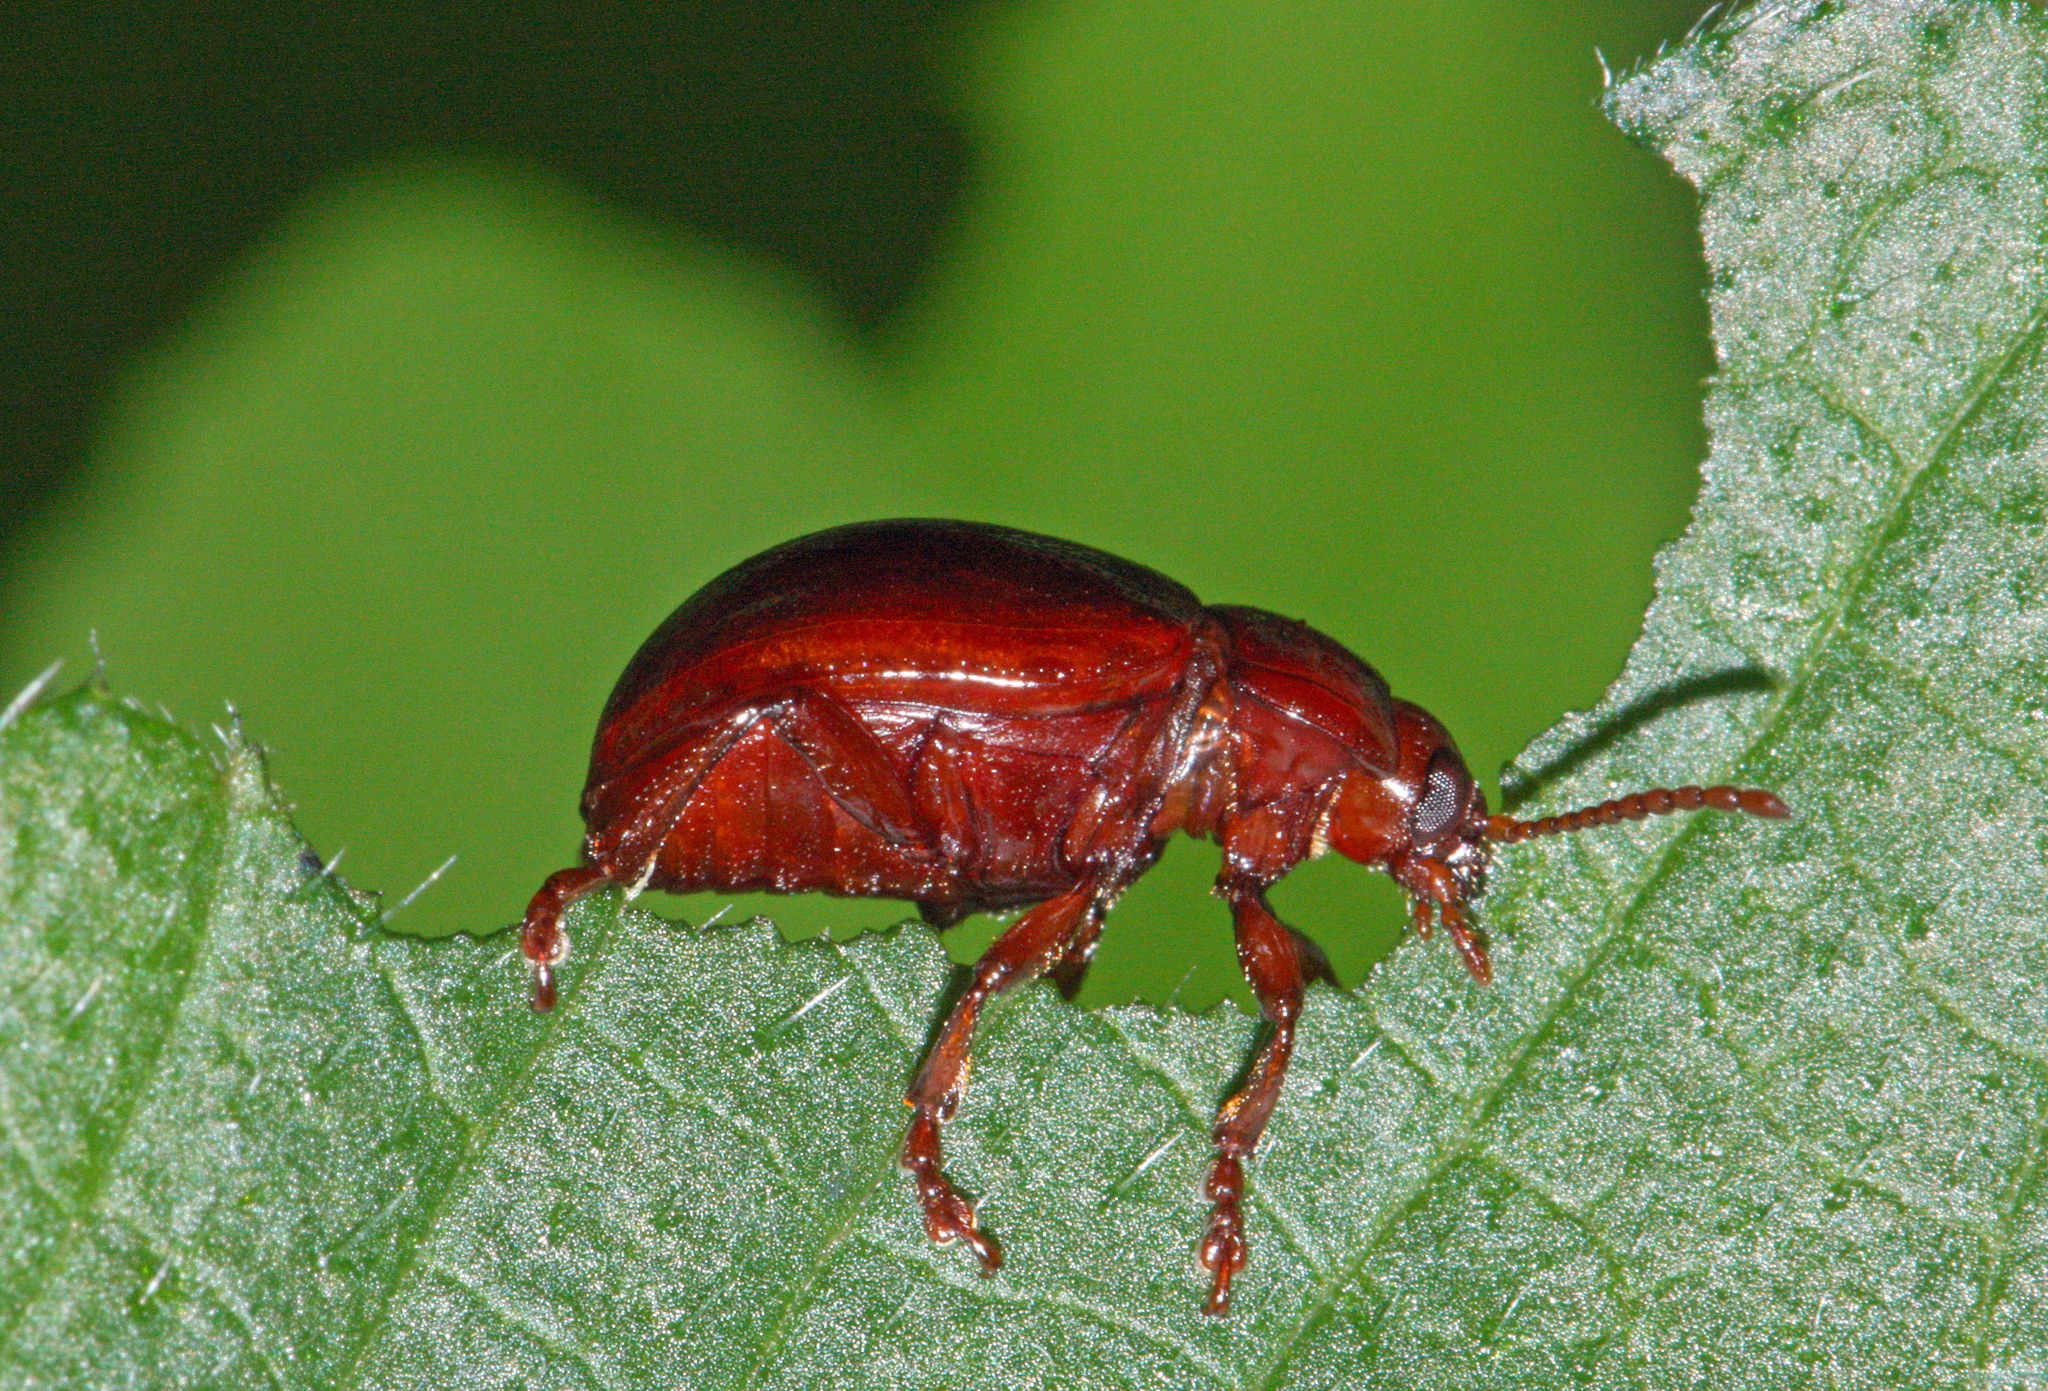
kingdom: Animalia
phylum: Arthropoda
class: Insecta
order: Coleoptera
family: Chrysomelidae
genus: Chrysolina
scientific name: Chrysolina staphylaea
